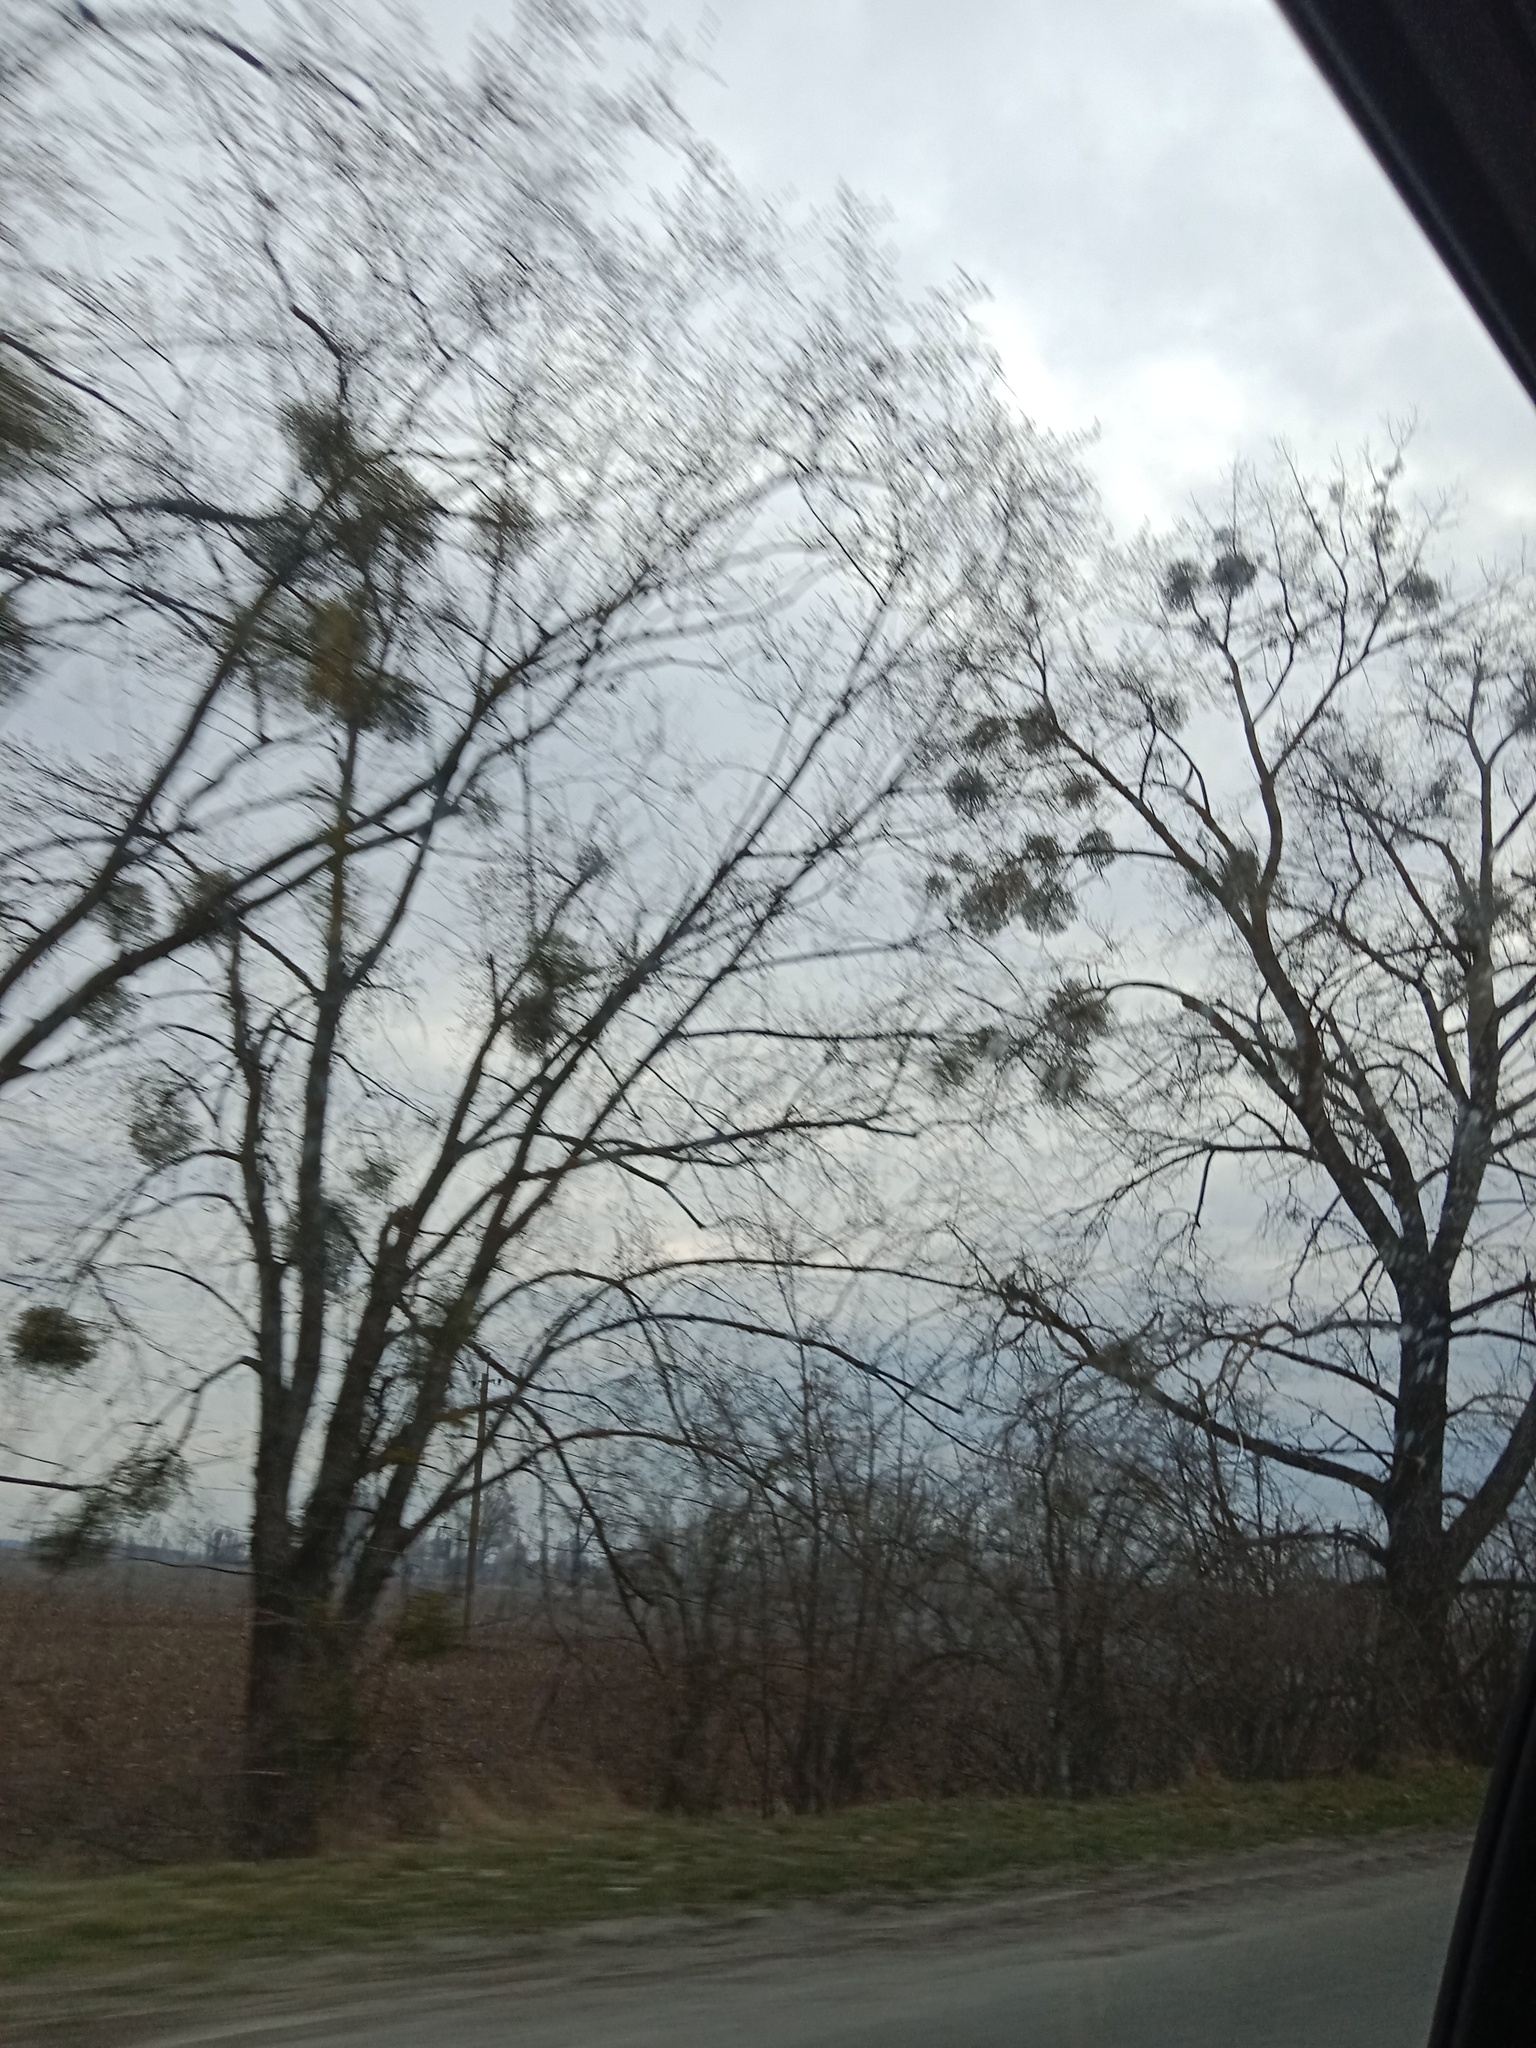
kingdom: Plantae
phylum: Tracheophyta
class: Magnoliopsida
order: Santalales
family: Viscaceae
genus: Viscum
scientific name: Viscum album
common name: Mistletoe
